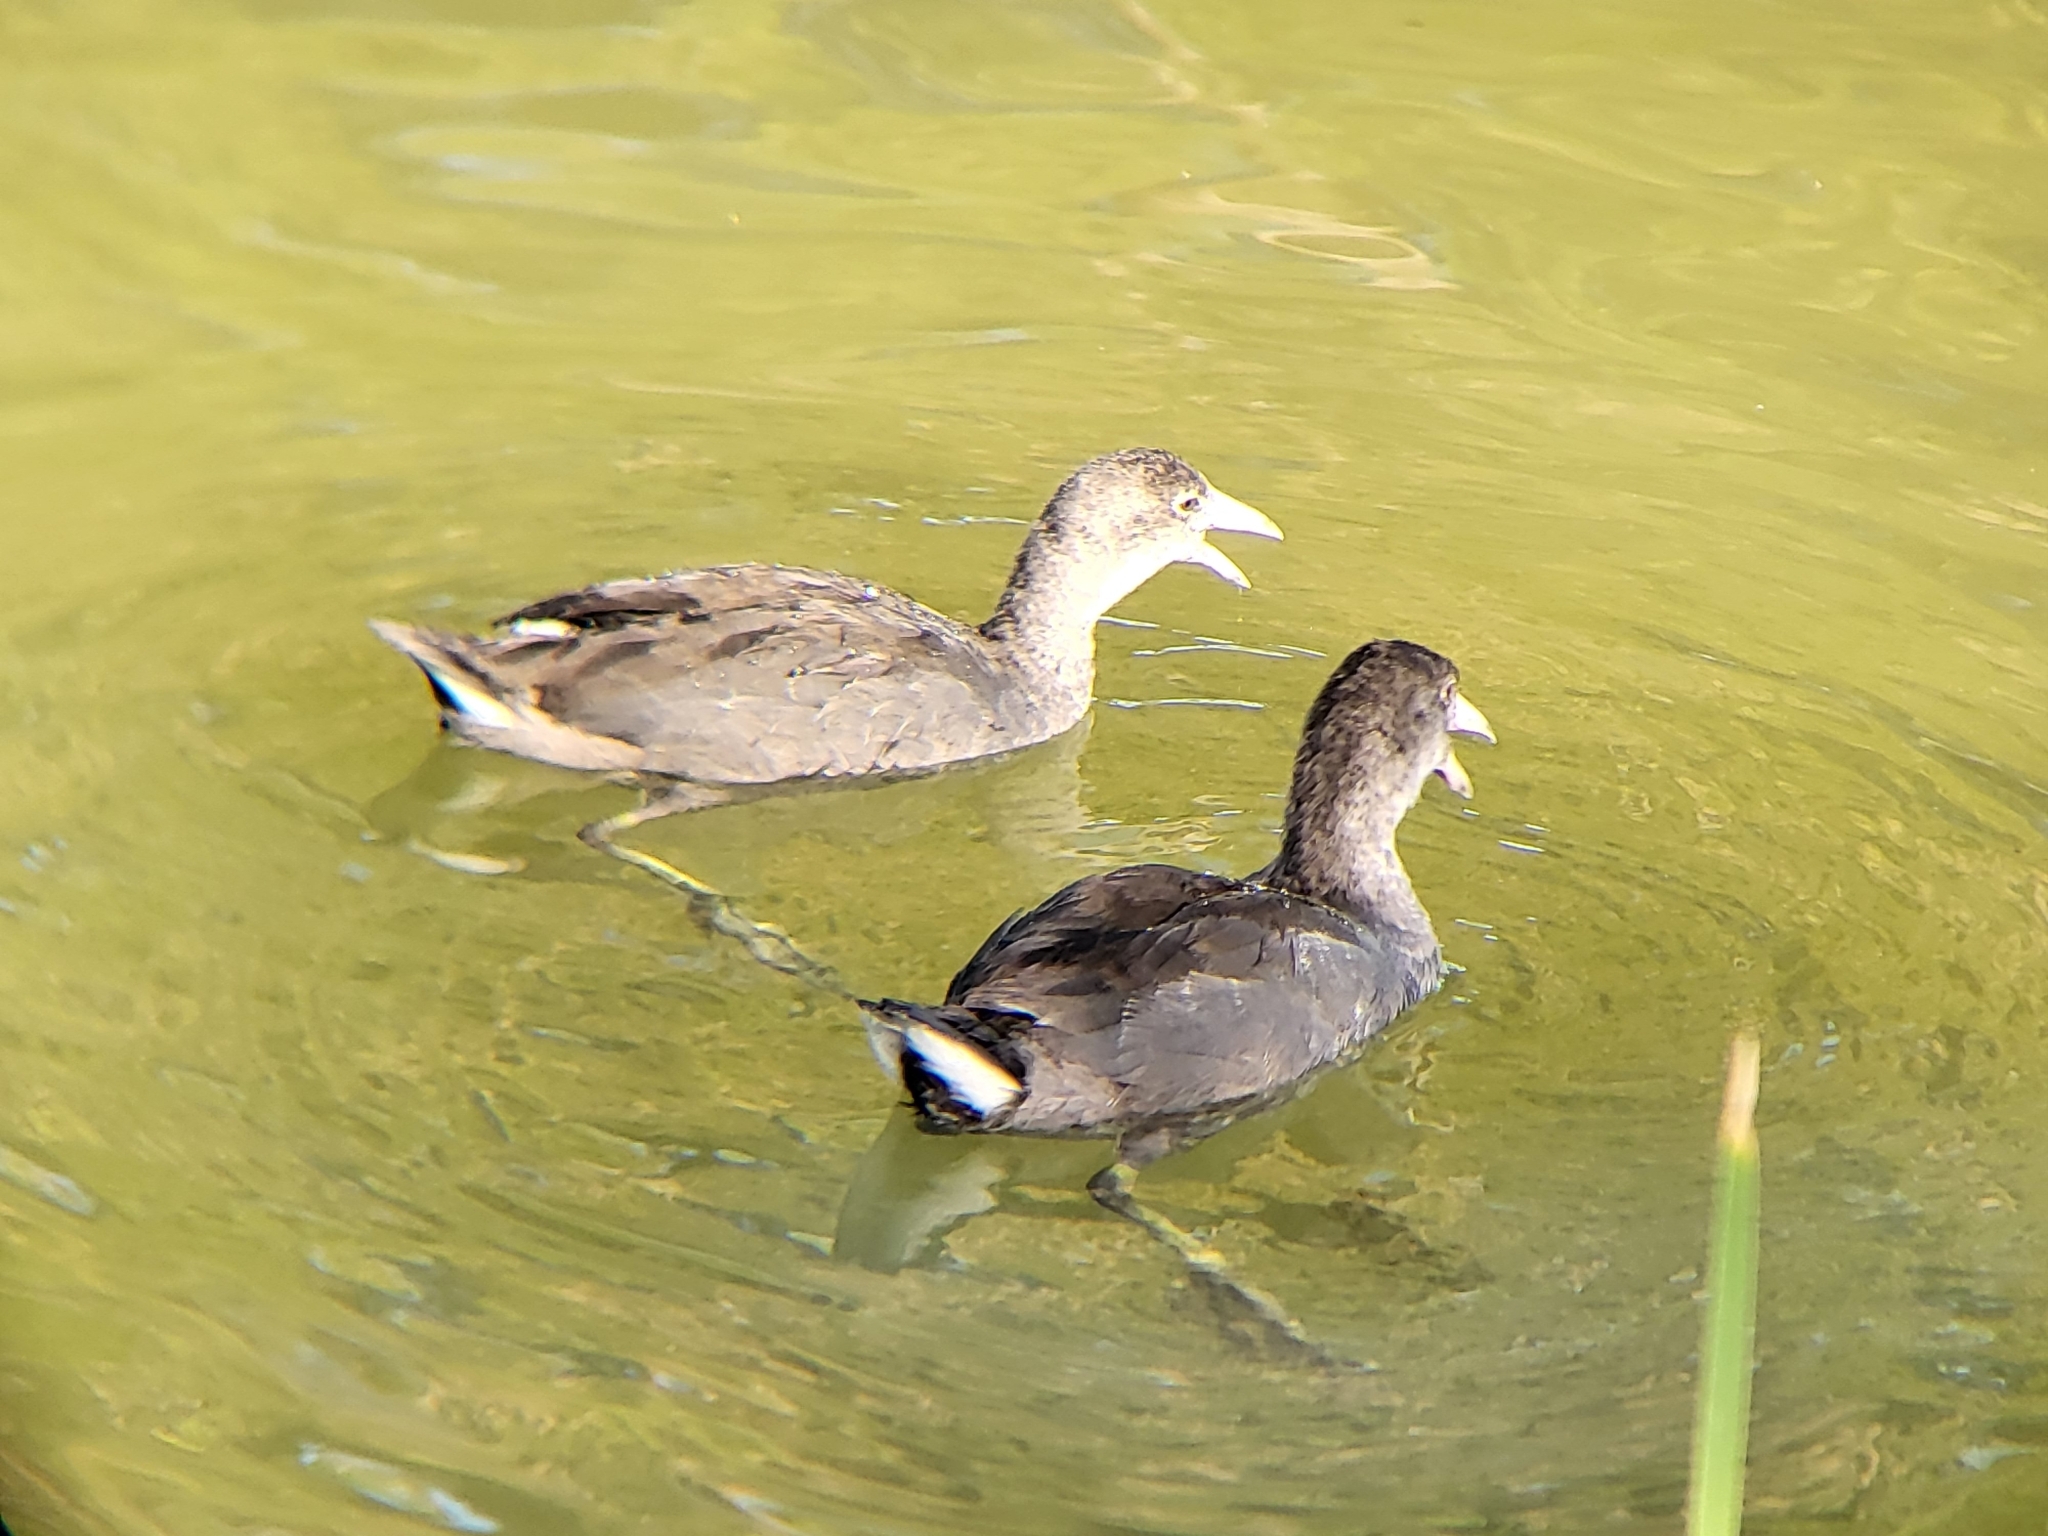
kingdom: Animalia
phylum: Chordata
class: Aves
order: Gruiformes
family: Rallidae
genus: Fulica
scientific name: Fulica americana
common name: American coot
